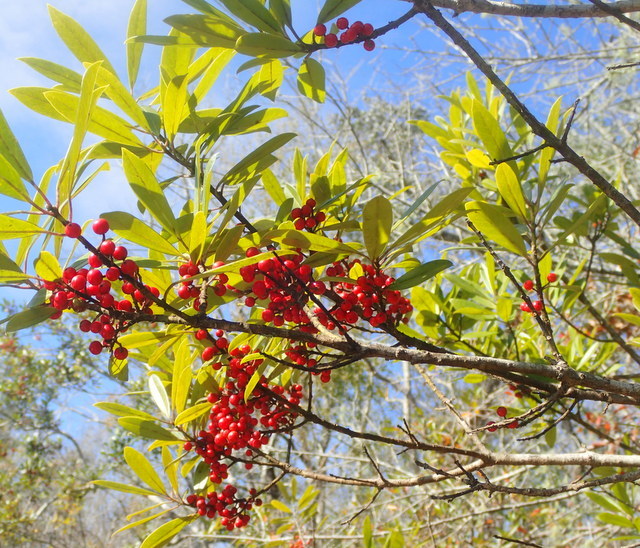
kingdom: Plantae
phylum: Tracheophyta
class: Magnoliopsida
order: Aquifoliales
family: Aquifoliaceae
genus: Ilex
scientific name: Ilex cassine
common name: Dahoon
